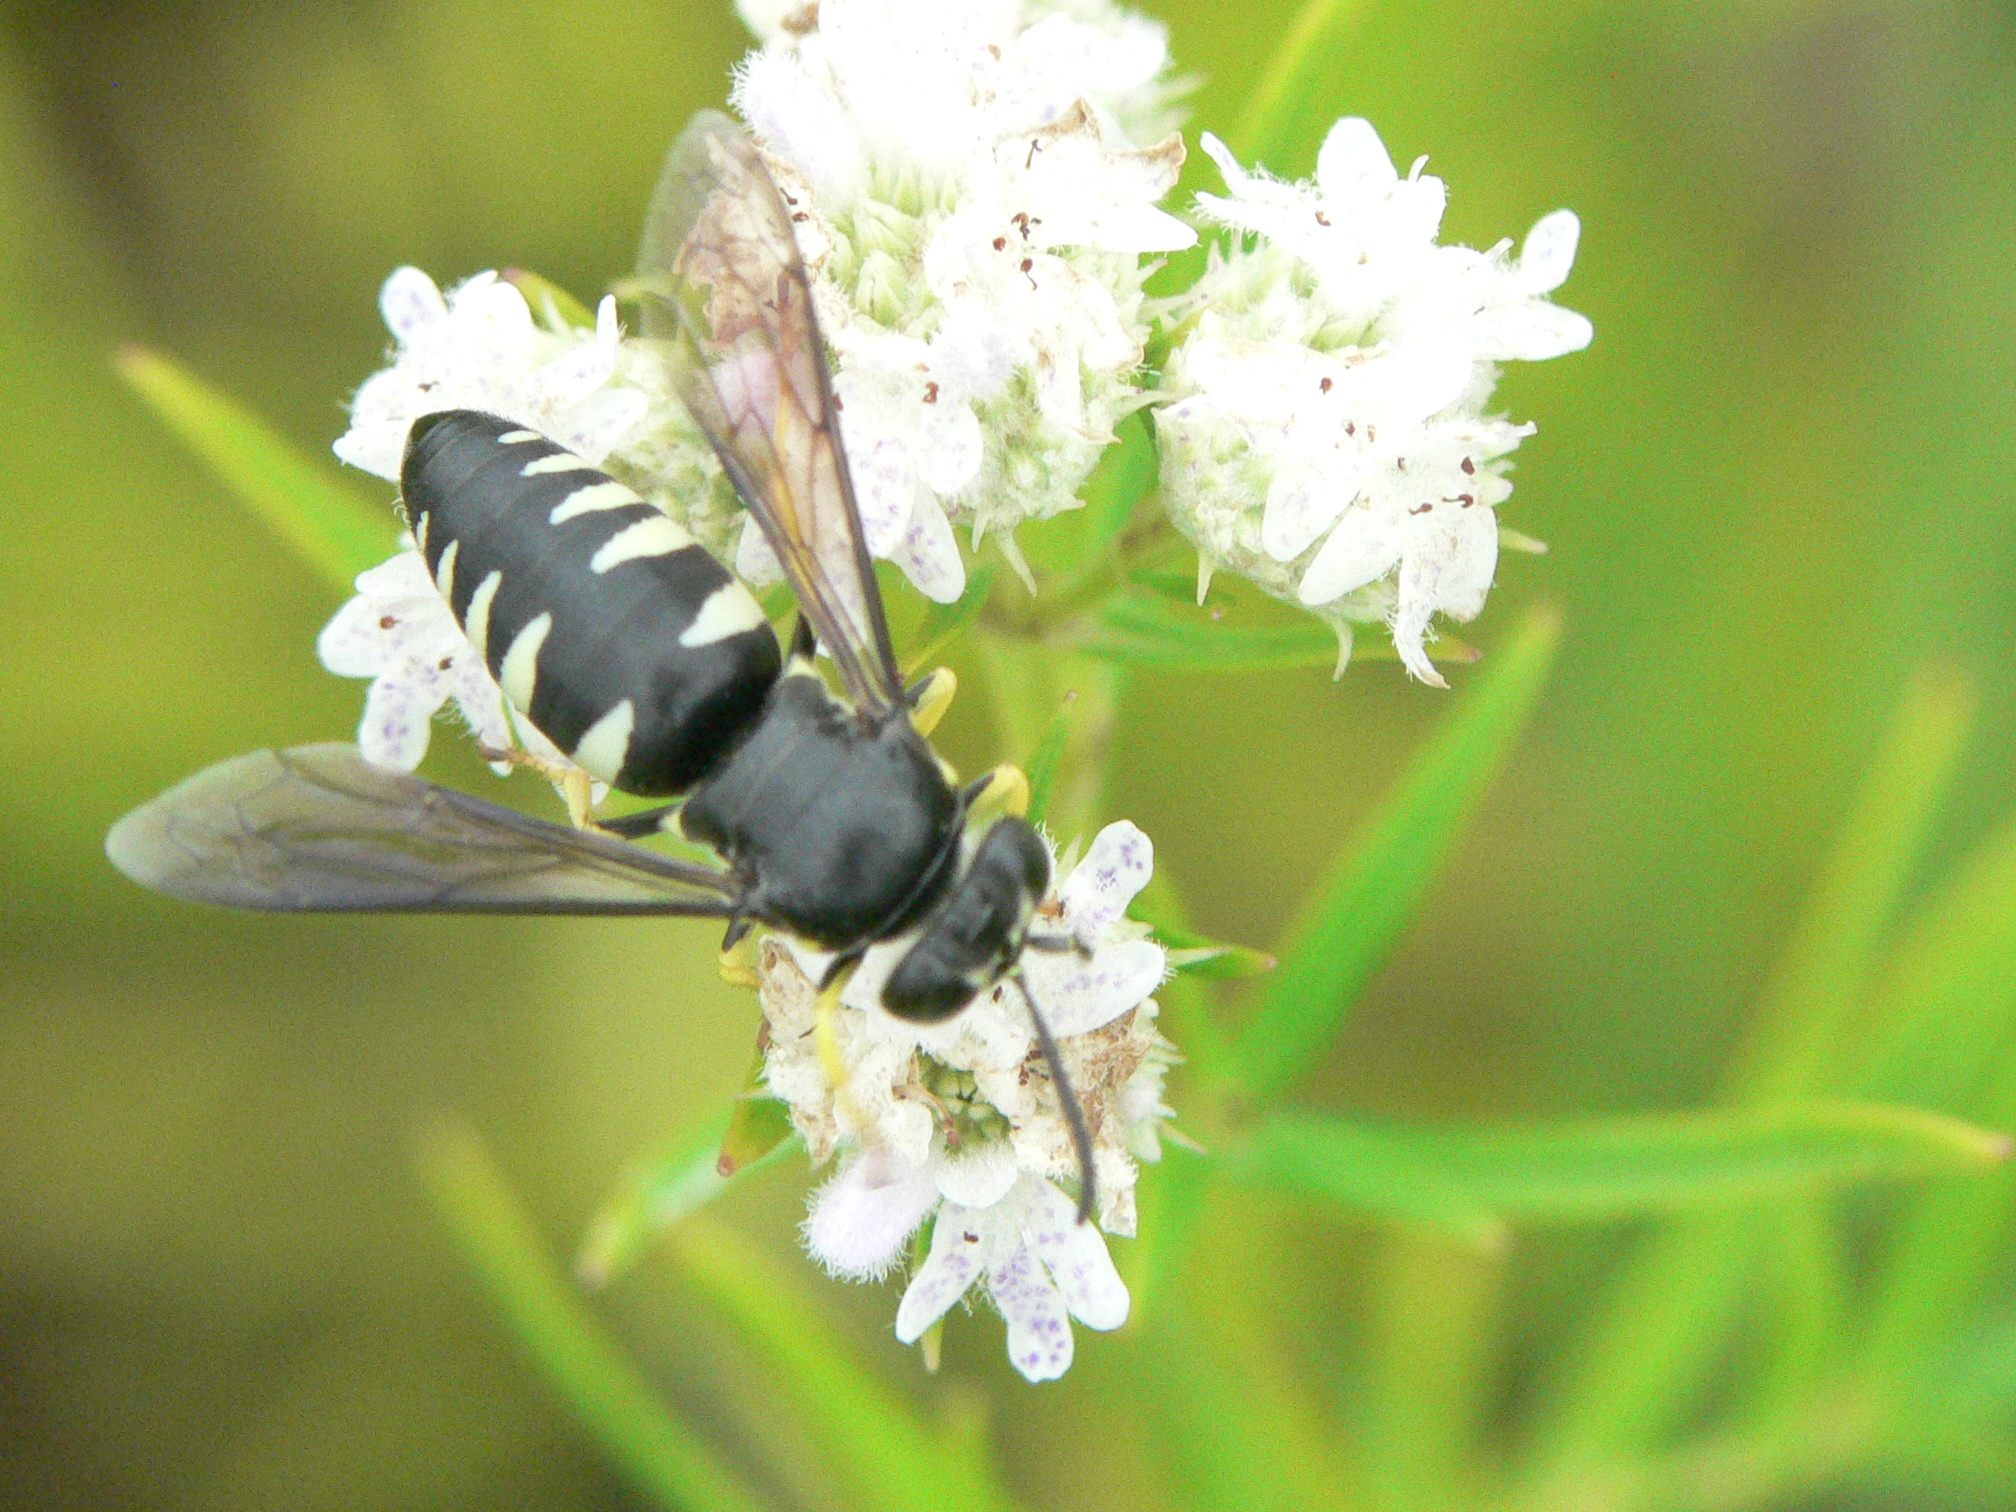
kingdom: Animalia
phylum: Arthropoda
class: Insecta
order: Hymenoptera
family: Crabronidae
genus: Bicyrtes
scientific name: Bicyrtes quadrifasciatus
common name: Four-banded stink bug hunter wasp
